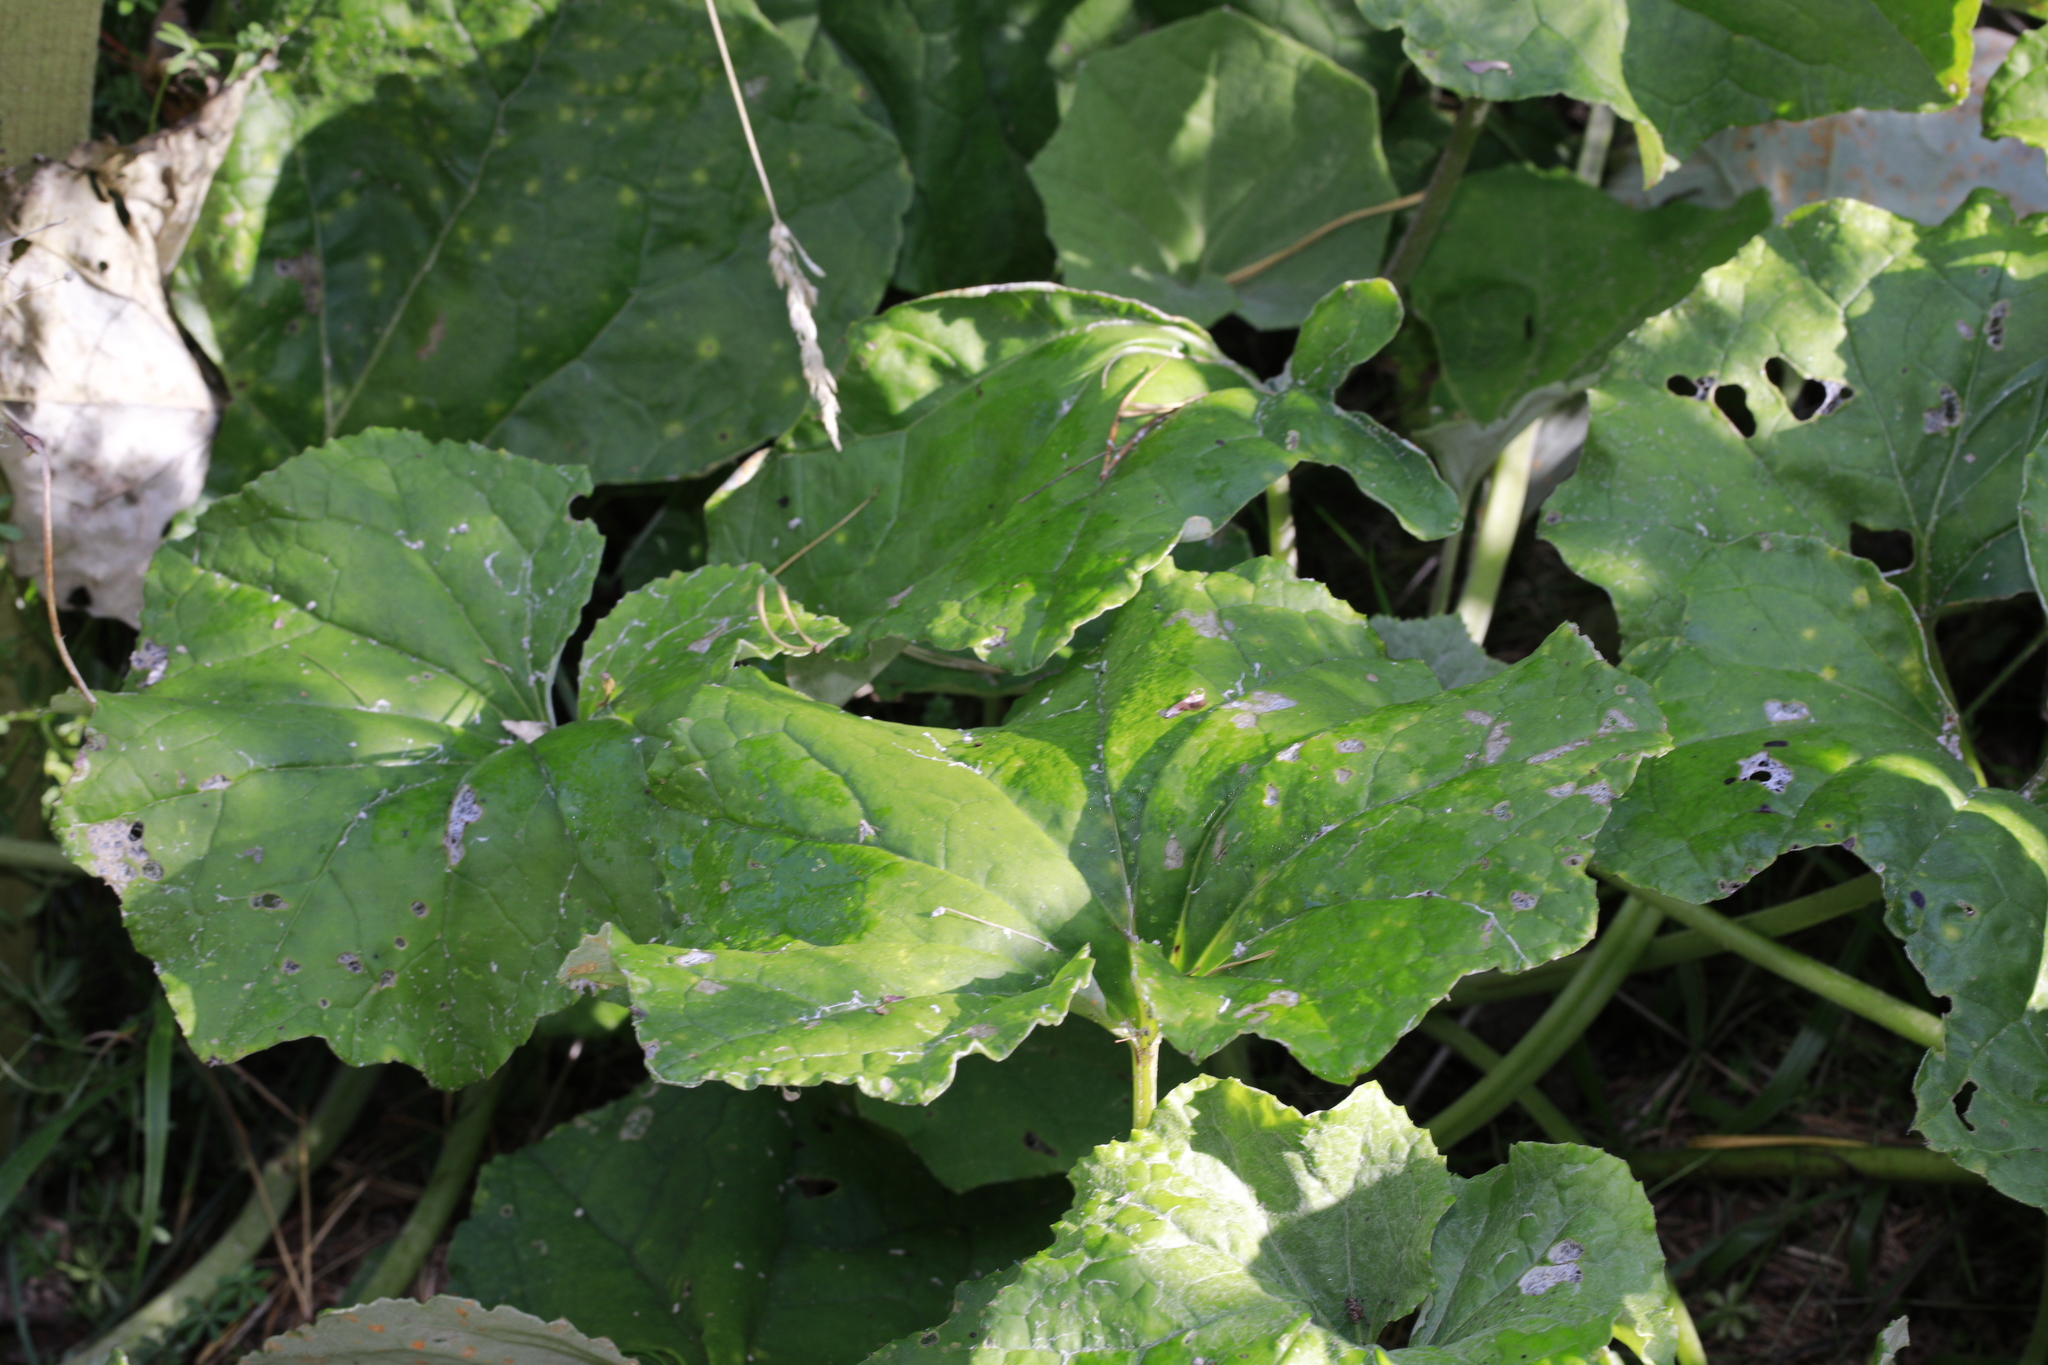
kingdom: Plantae
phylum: Tracheophyta
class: Magnoliopsida
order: Asterales
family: Asteraceae
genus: Tussilago
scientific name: Tussilago farfara
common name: Coltsfoot
